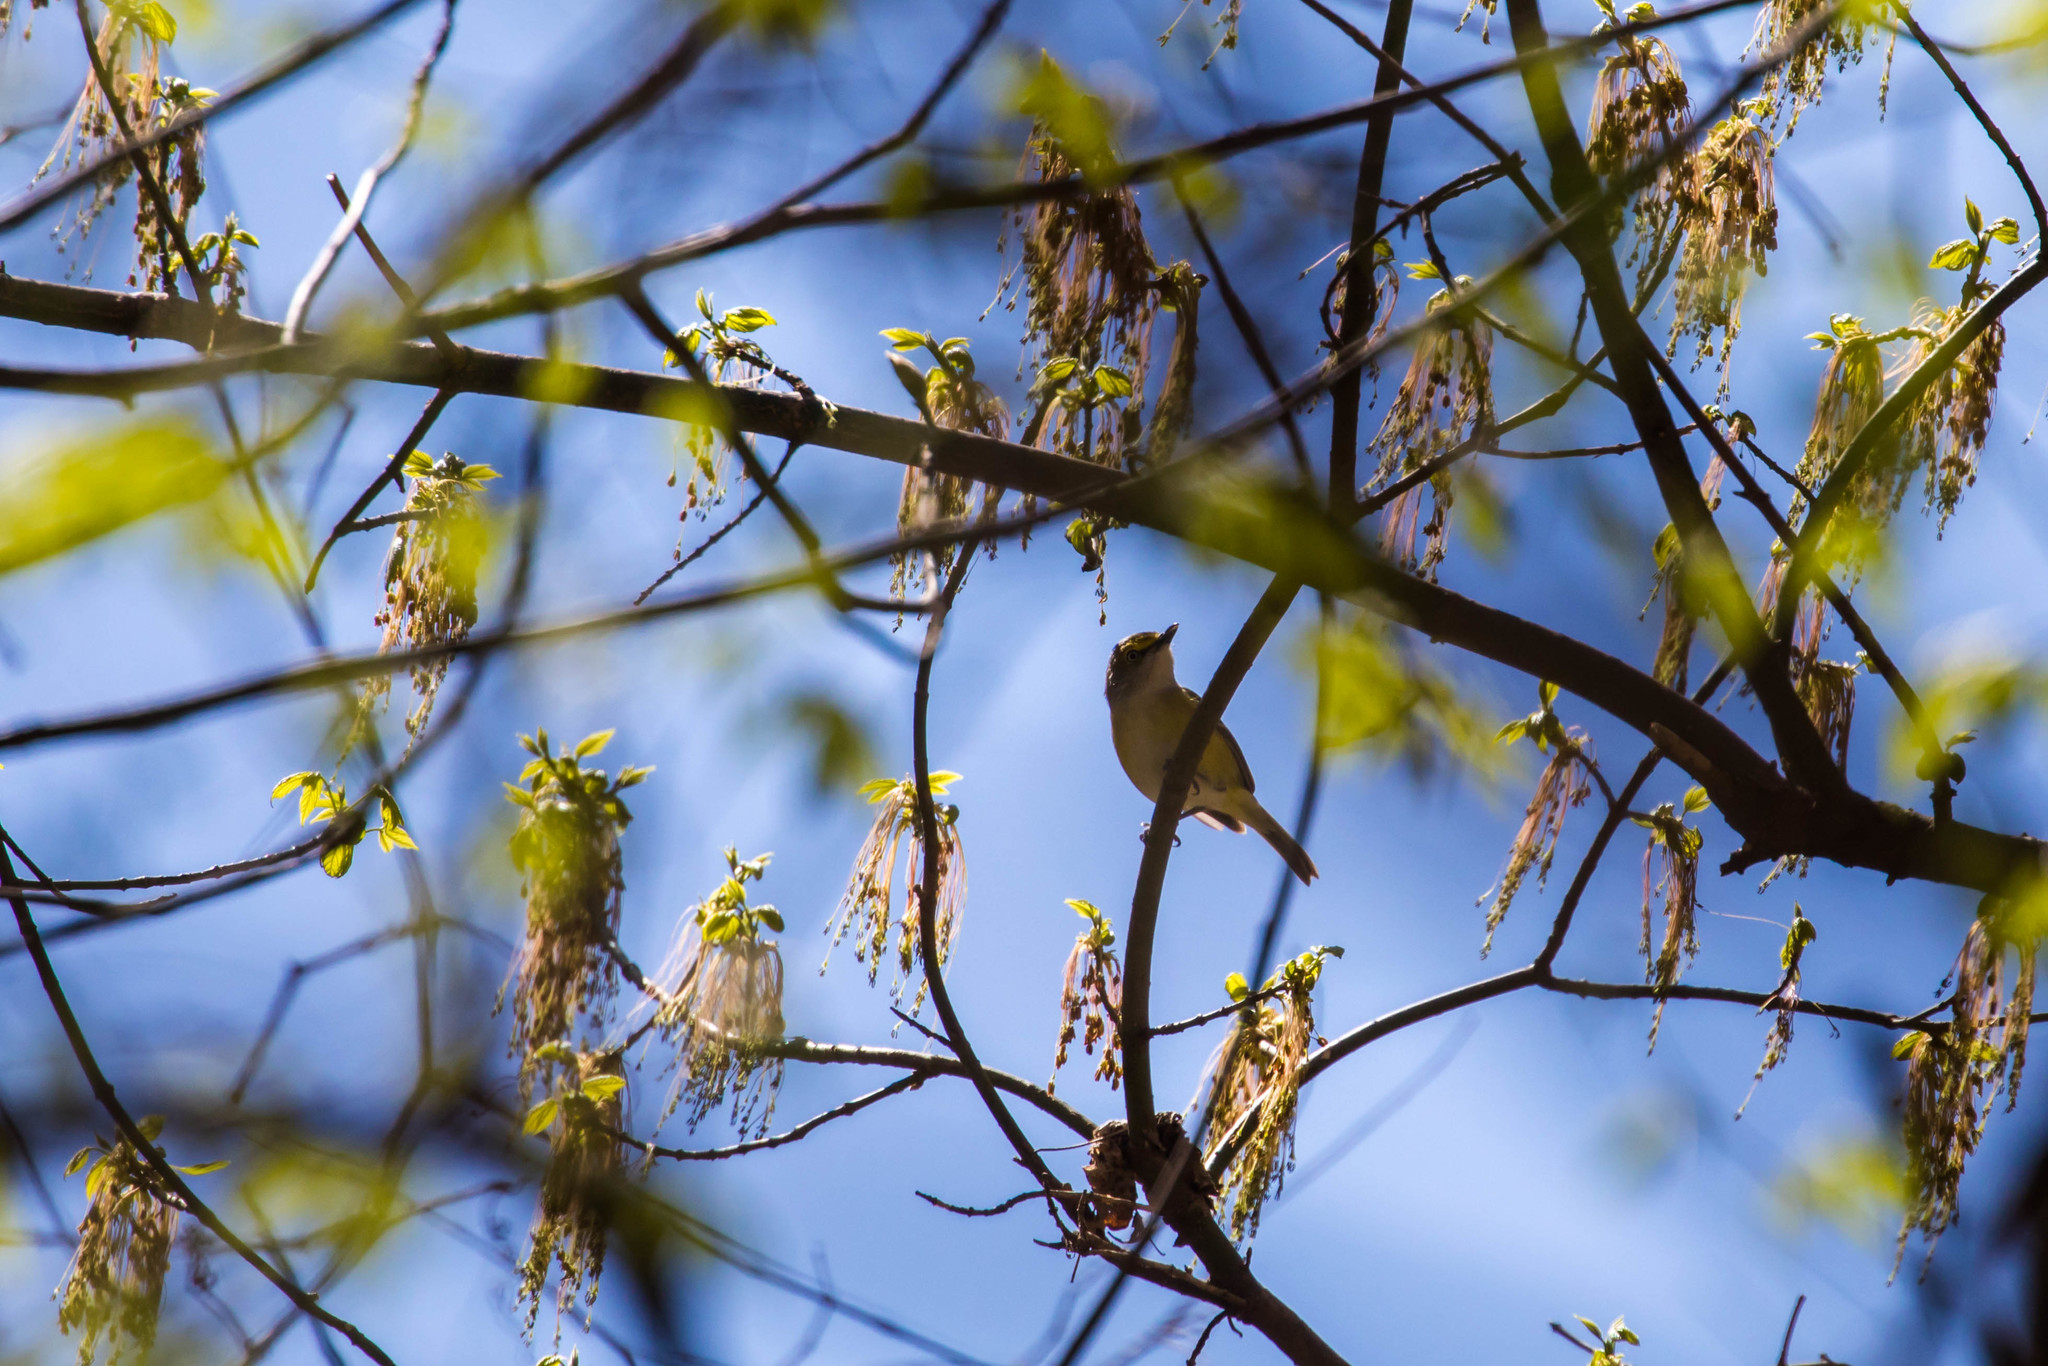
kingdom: Animalia
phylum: Chordata
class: Aves
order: Passeriformes
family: Vireonidae
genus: Vireo
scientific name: Vireo griseus
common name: White-eyed vireo
